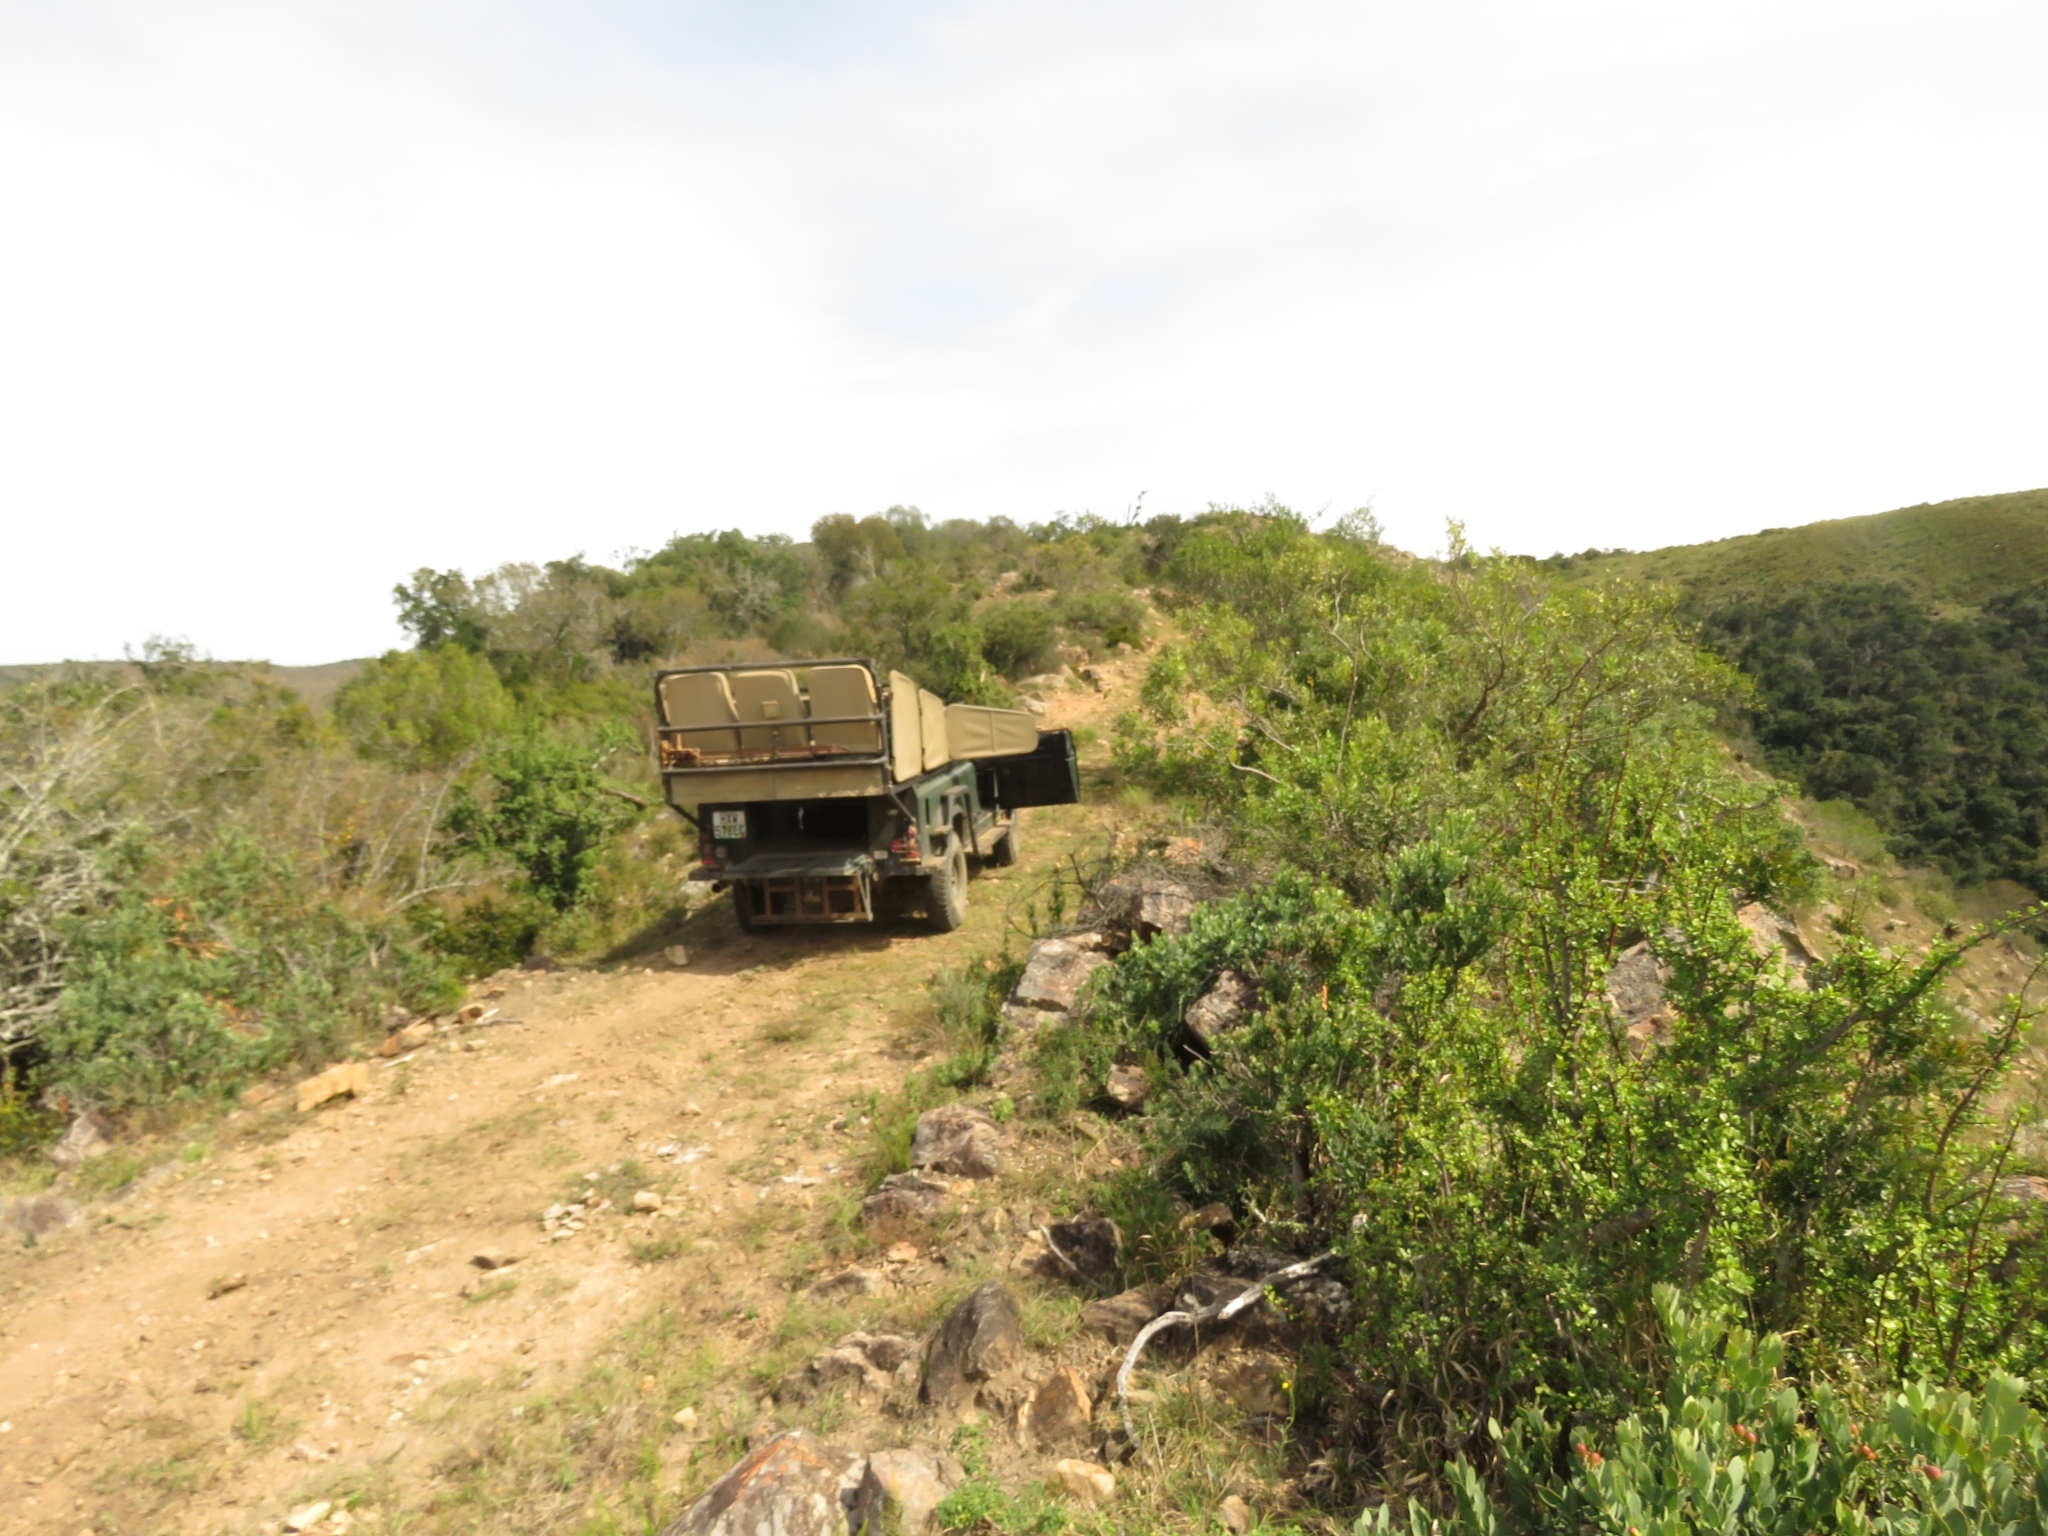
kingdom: Plantae
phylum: Tracheophyta
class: Magnoliopsida
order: Caryophyllales
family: Didiereaceae
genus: Portulacaria
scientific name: Portulacaria afra
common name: Elephant-bush
